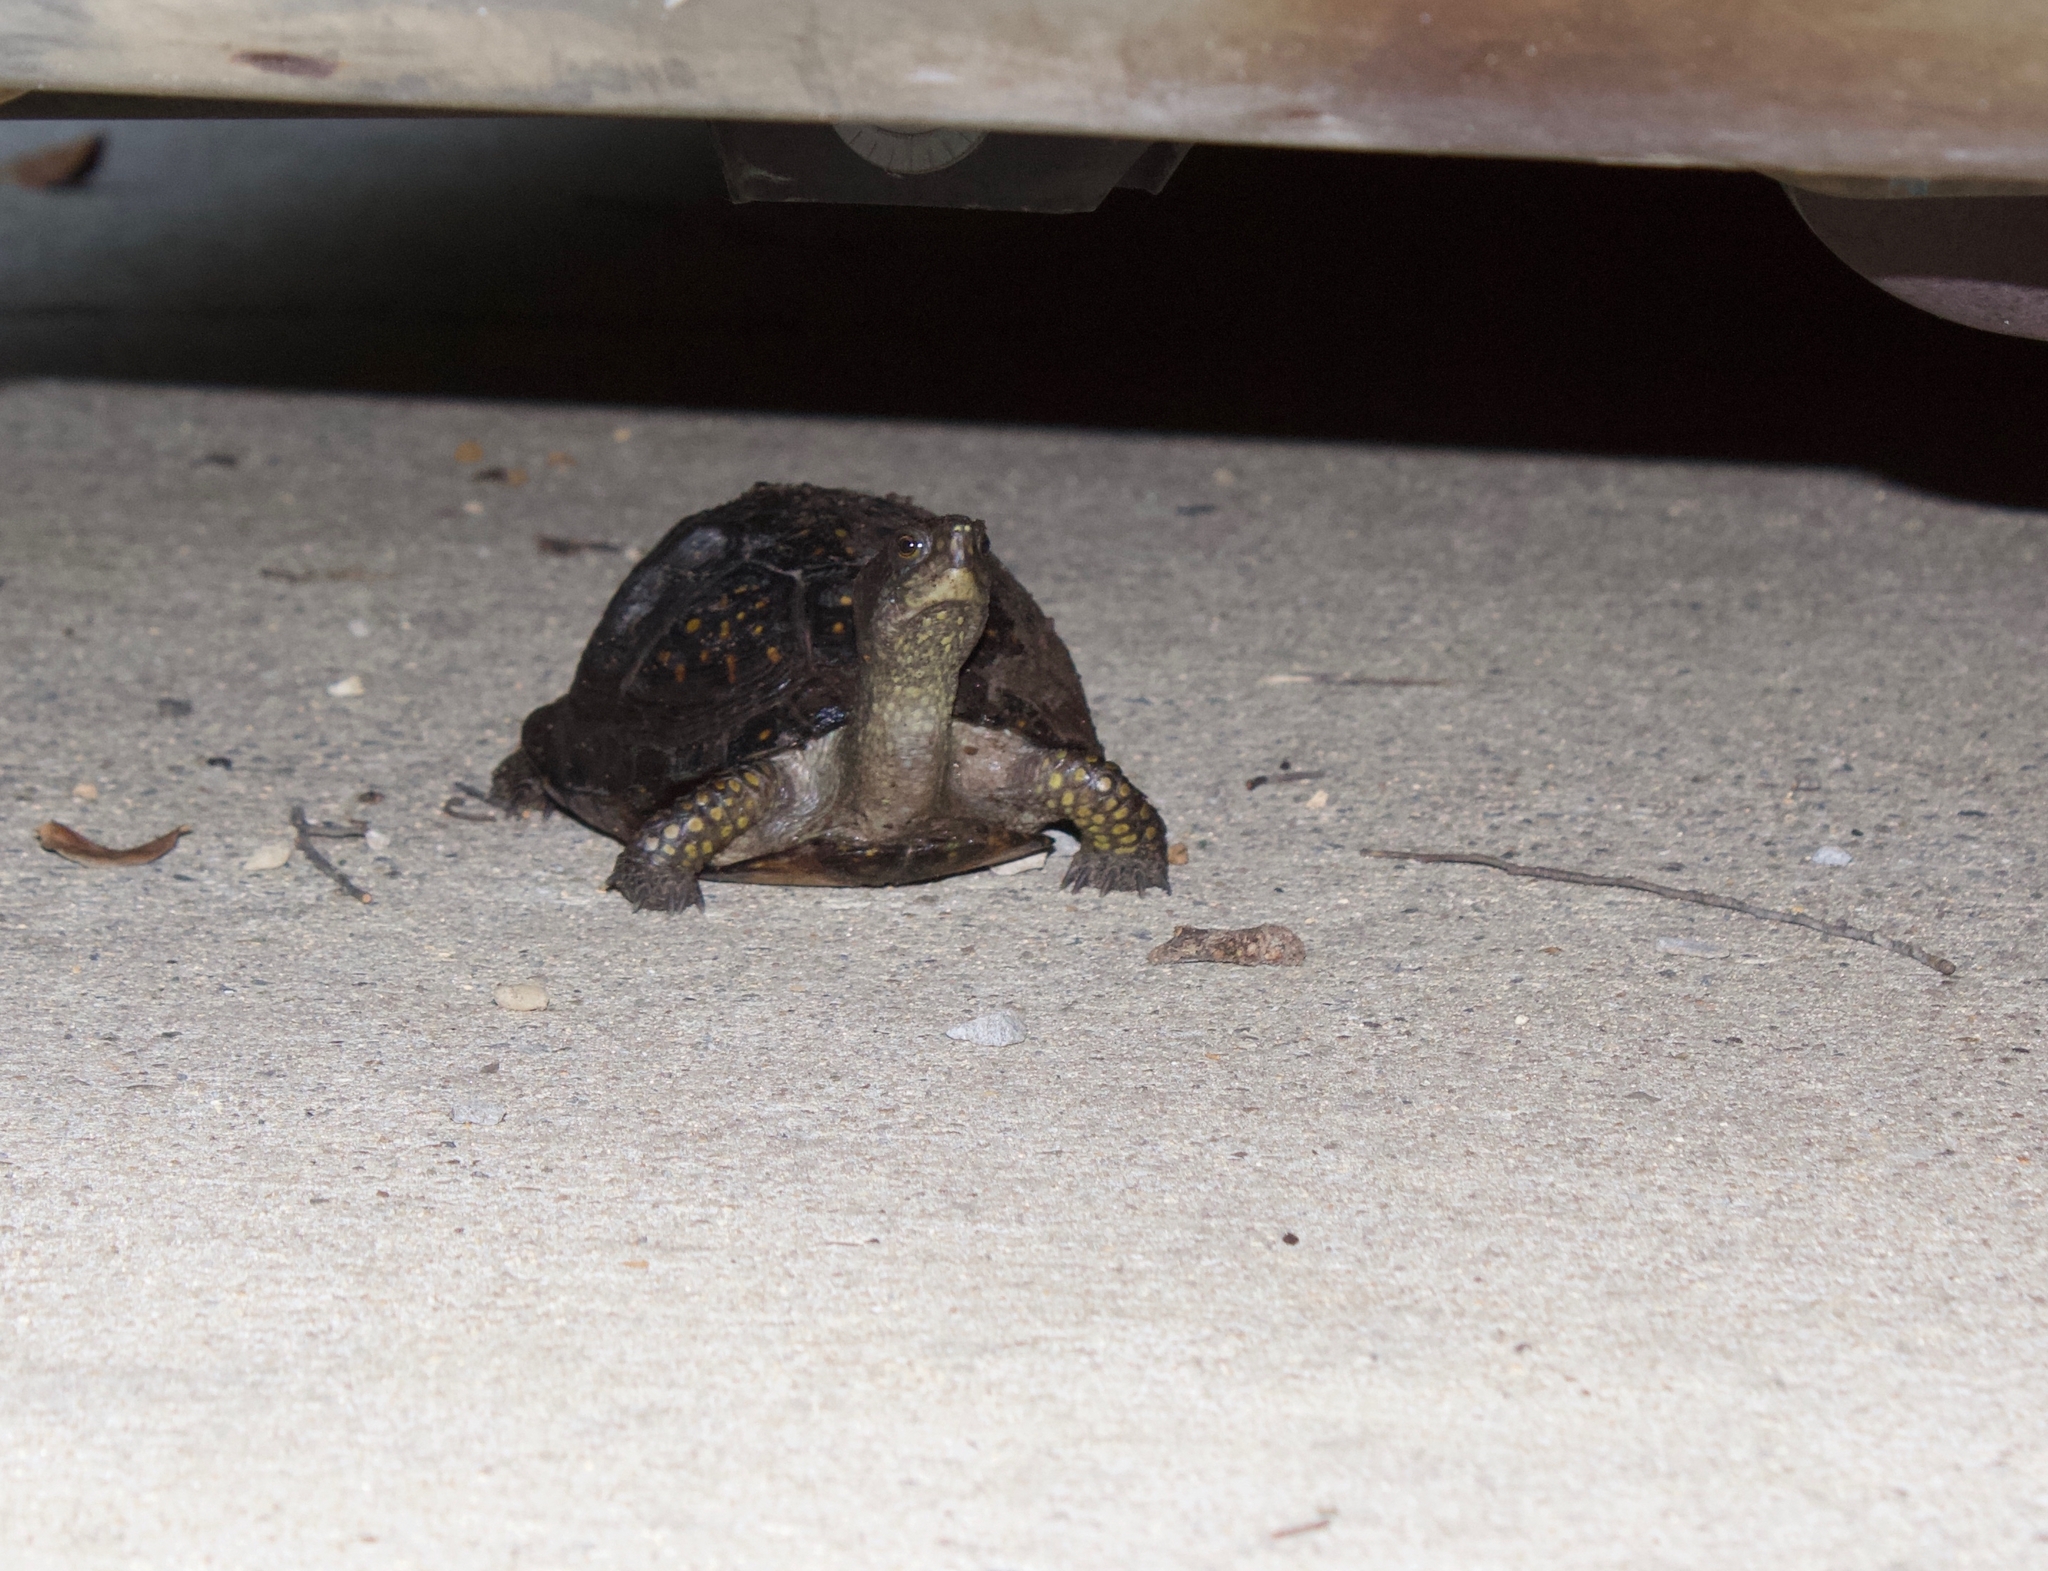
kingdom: Animalia
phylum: Chordata
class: Testudines
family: Emydidae
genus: Terrapene
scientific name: Terrapene carolina
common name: Common box turtle
